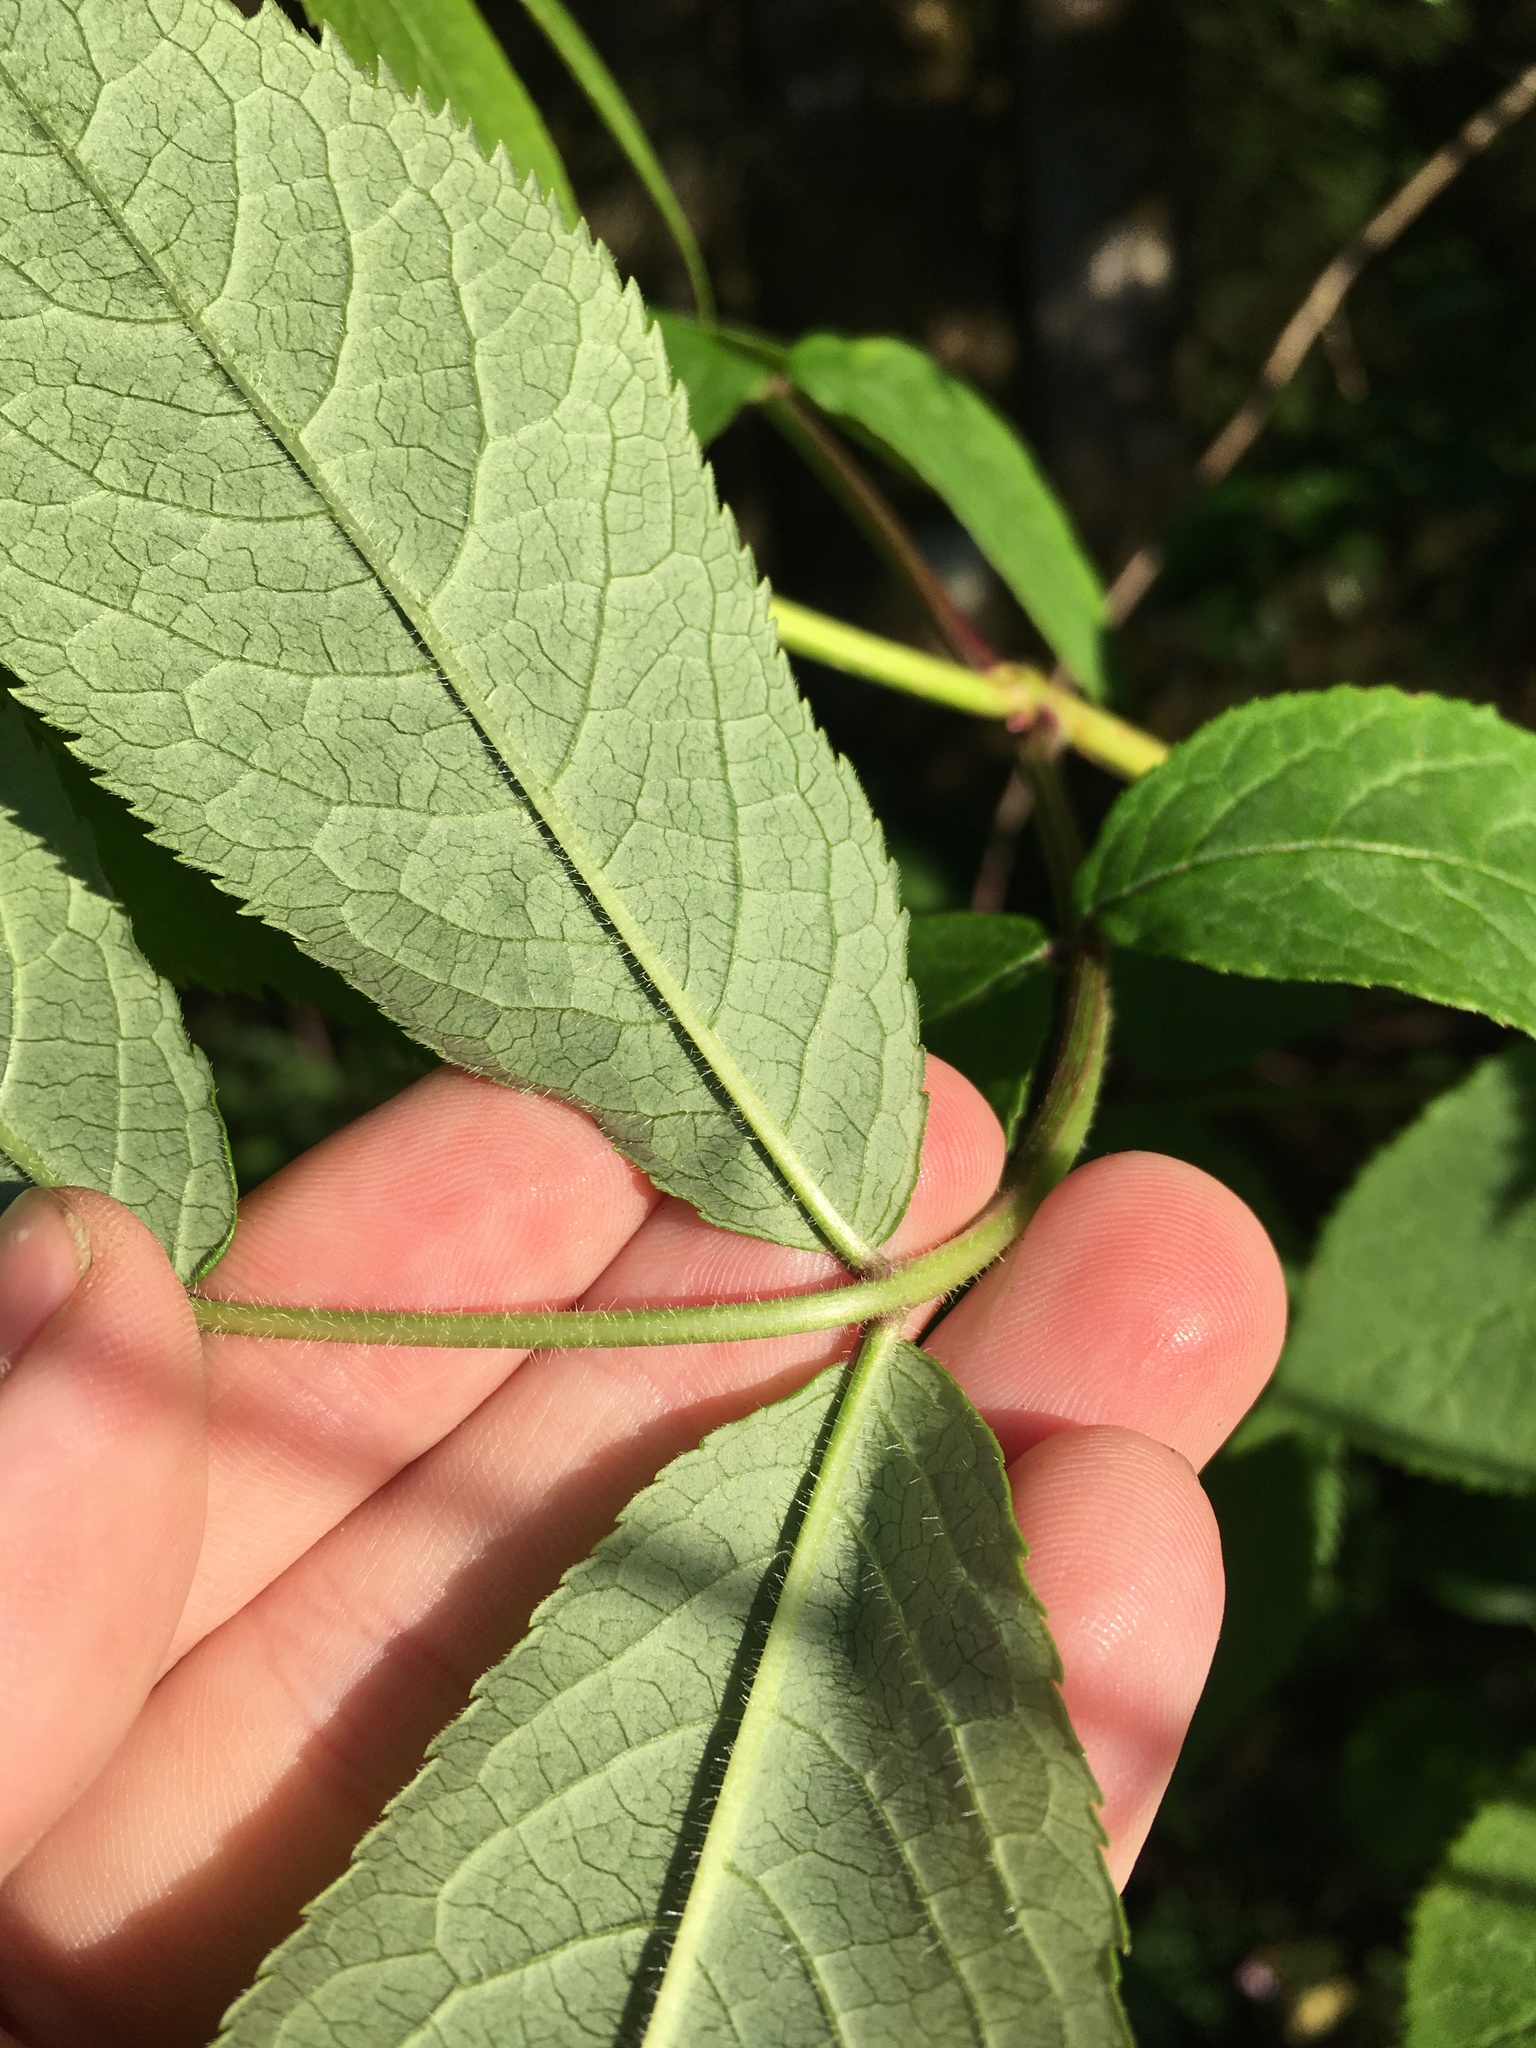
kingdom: Plantae
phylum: Tracheophyta
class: Magnoliopsida
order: Dipsacales
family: Viburnaceae
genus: Sambucus
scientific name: Sambucus racemosa
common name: Red-berried elder
